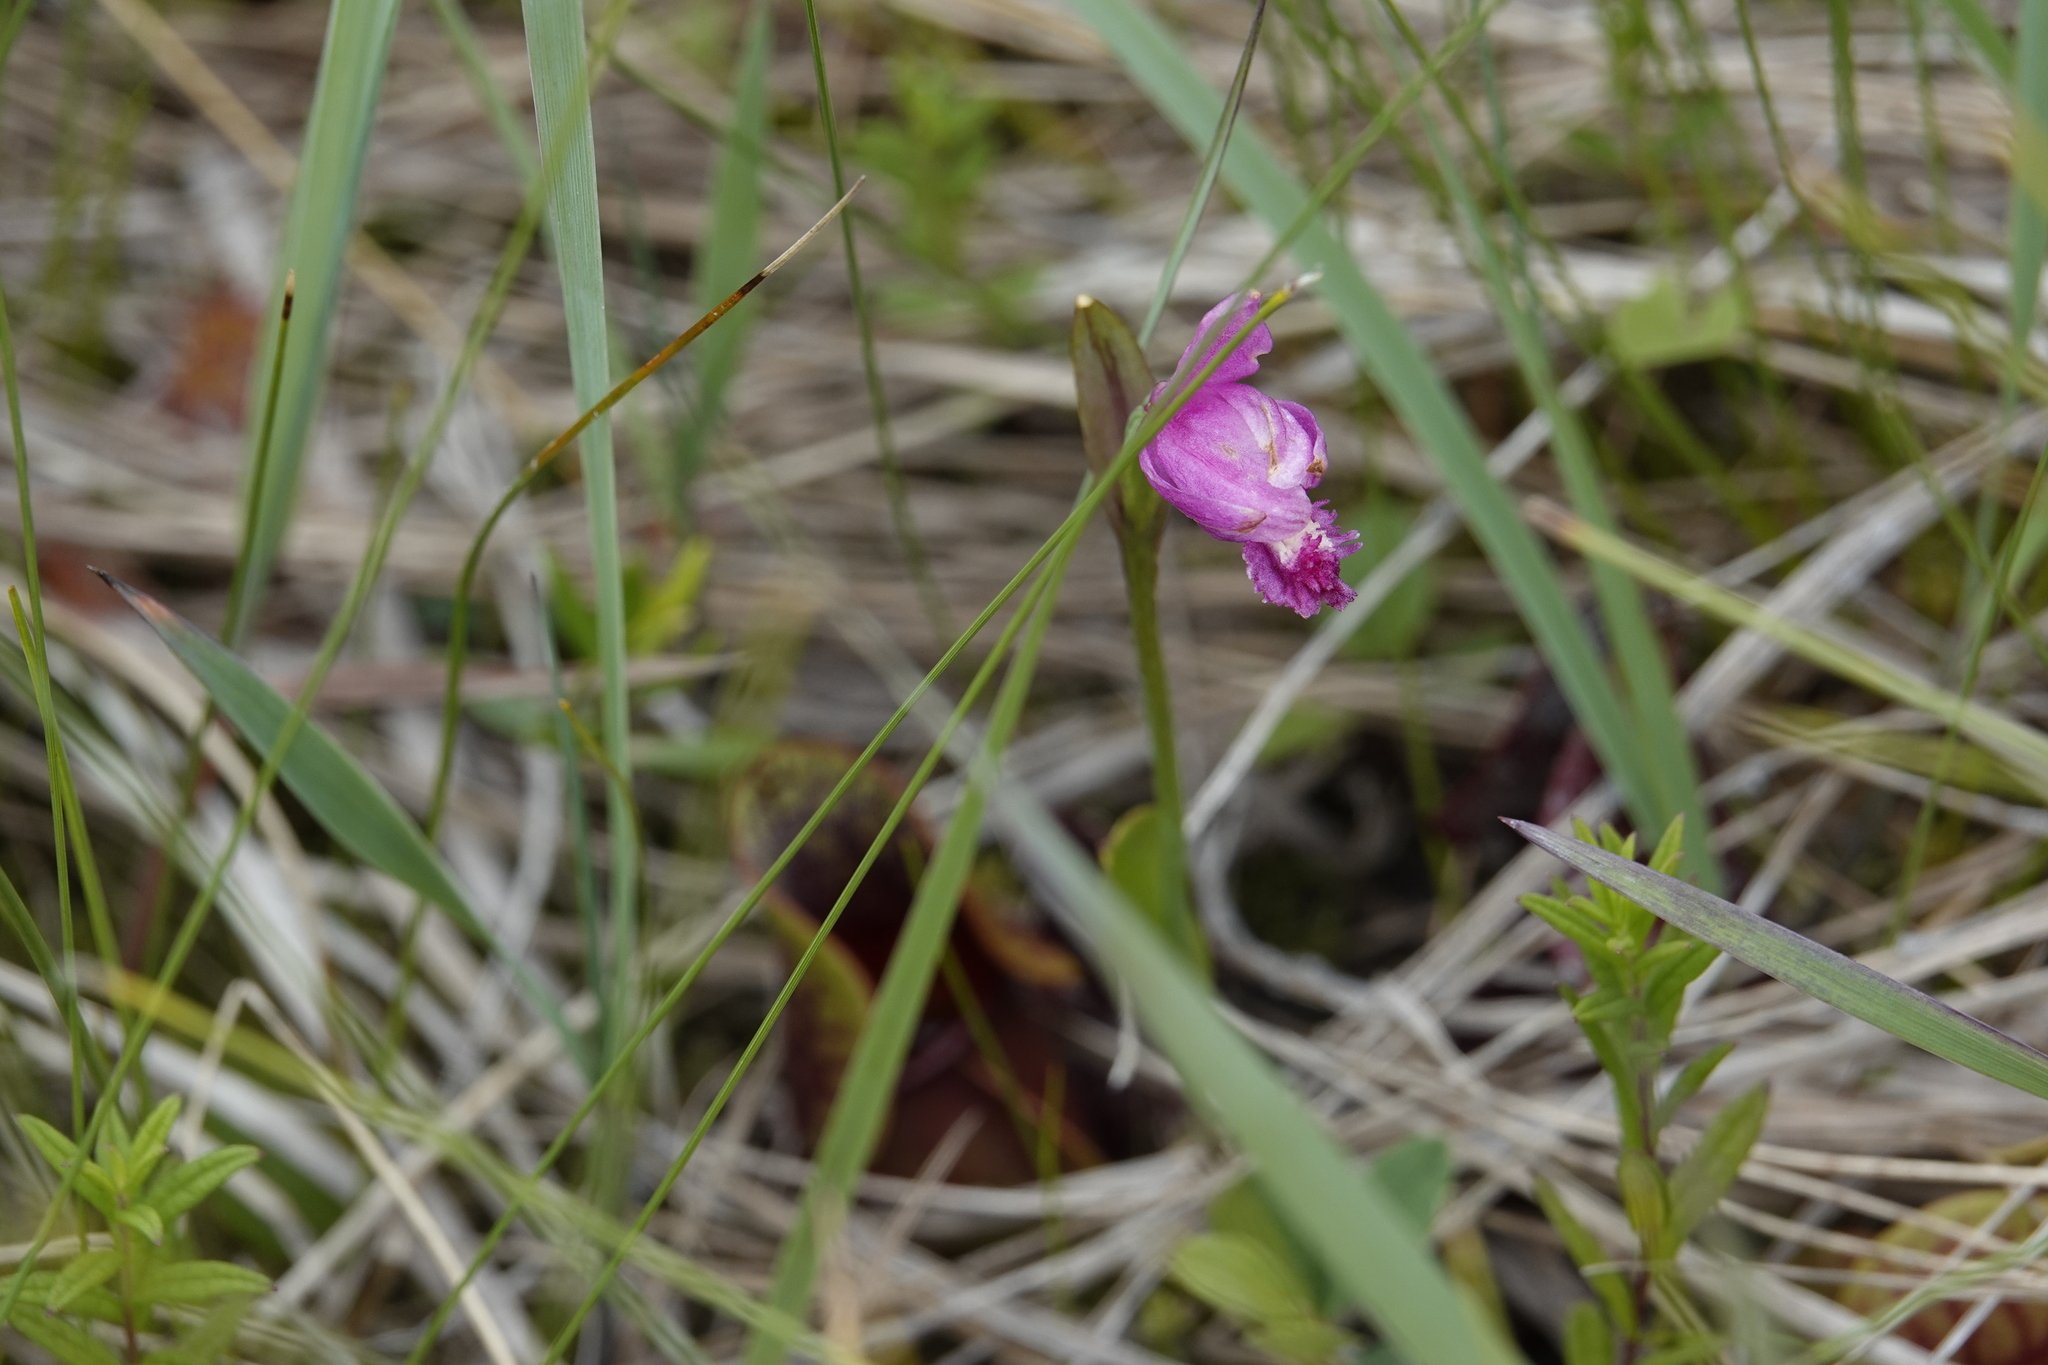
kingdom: Plantae
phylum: Tracheophyta
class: Liliopsida
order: Asparagales
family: Orchidaceae
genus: Pogonia
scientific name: Pogonia ophioglossoides
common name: Rose pogonia
